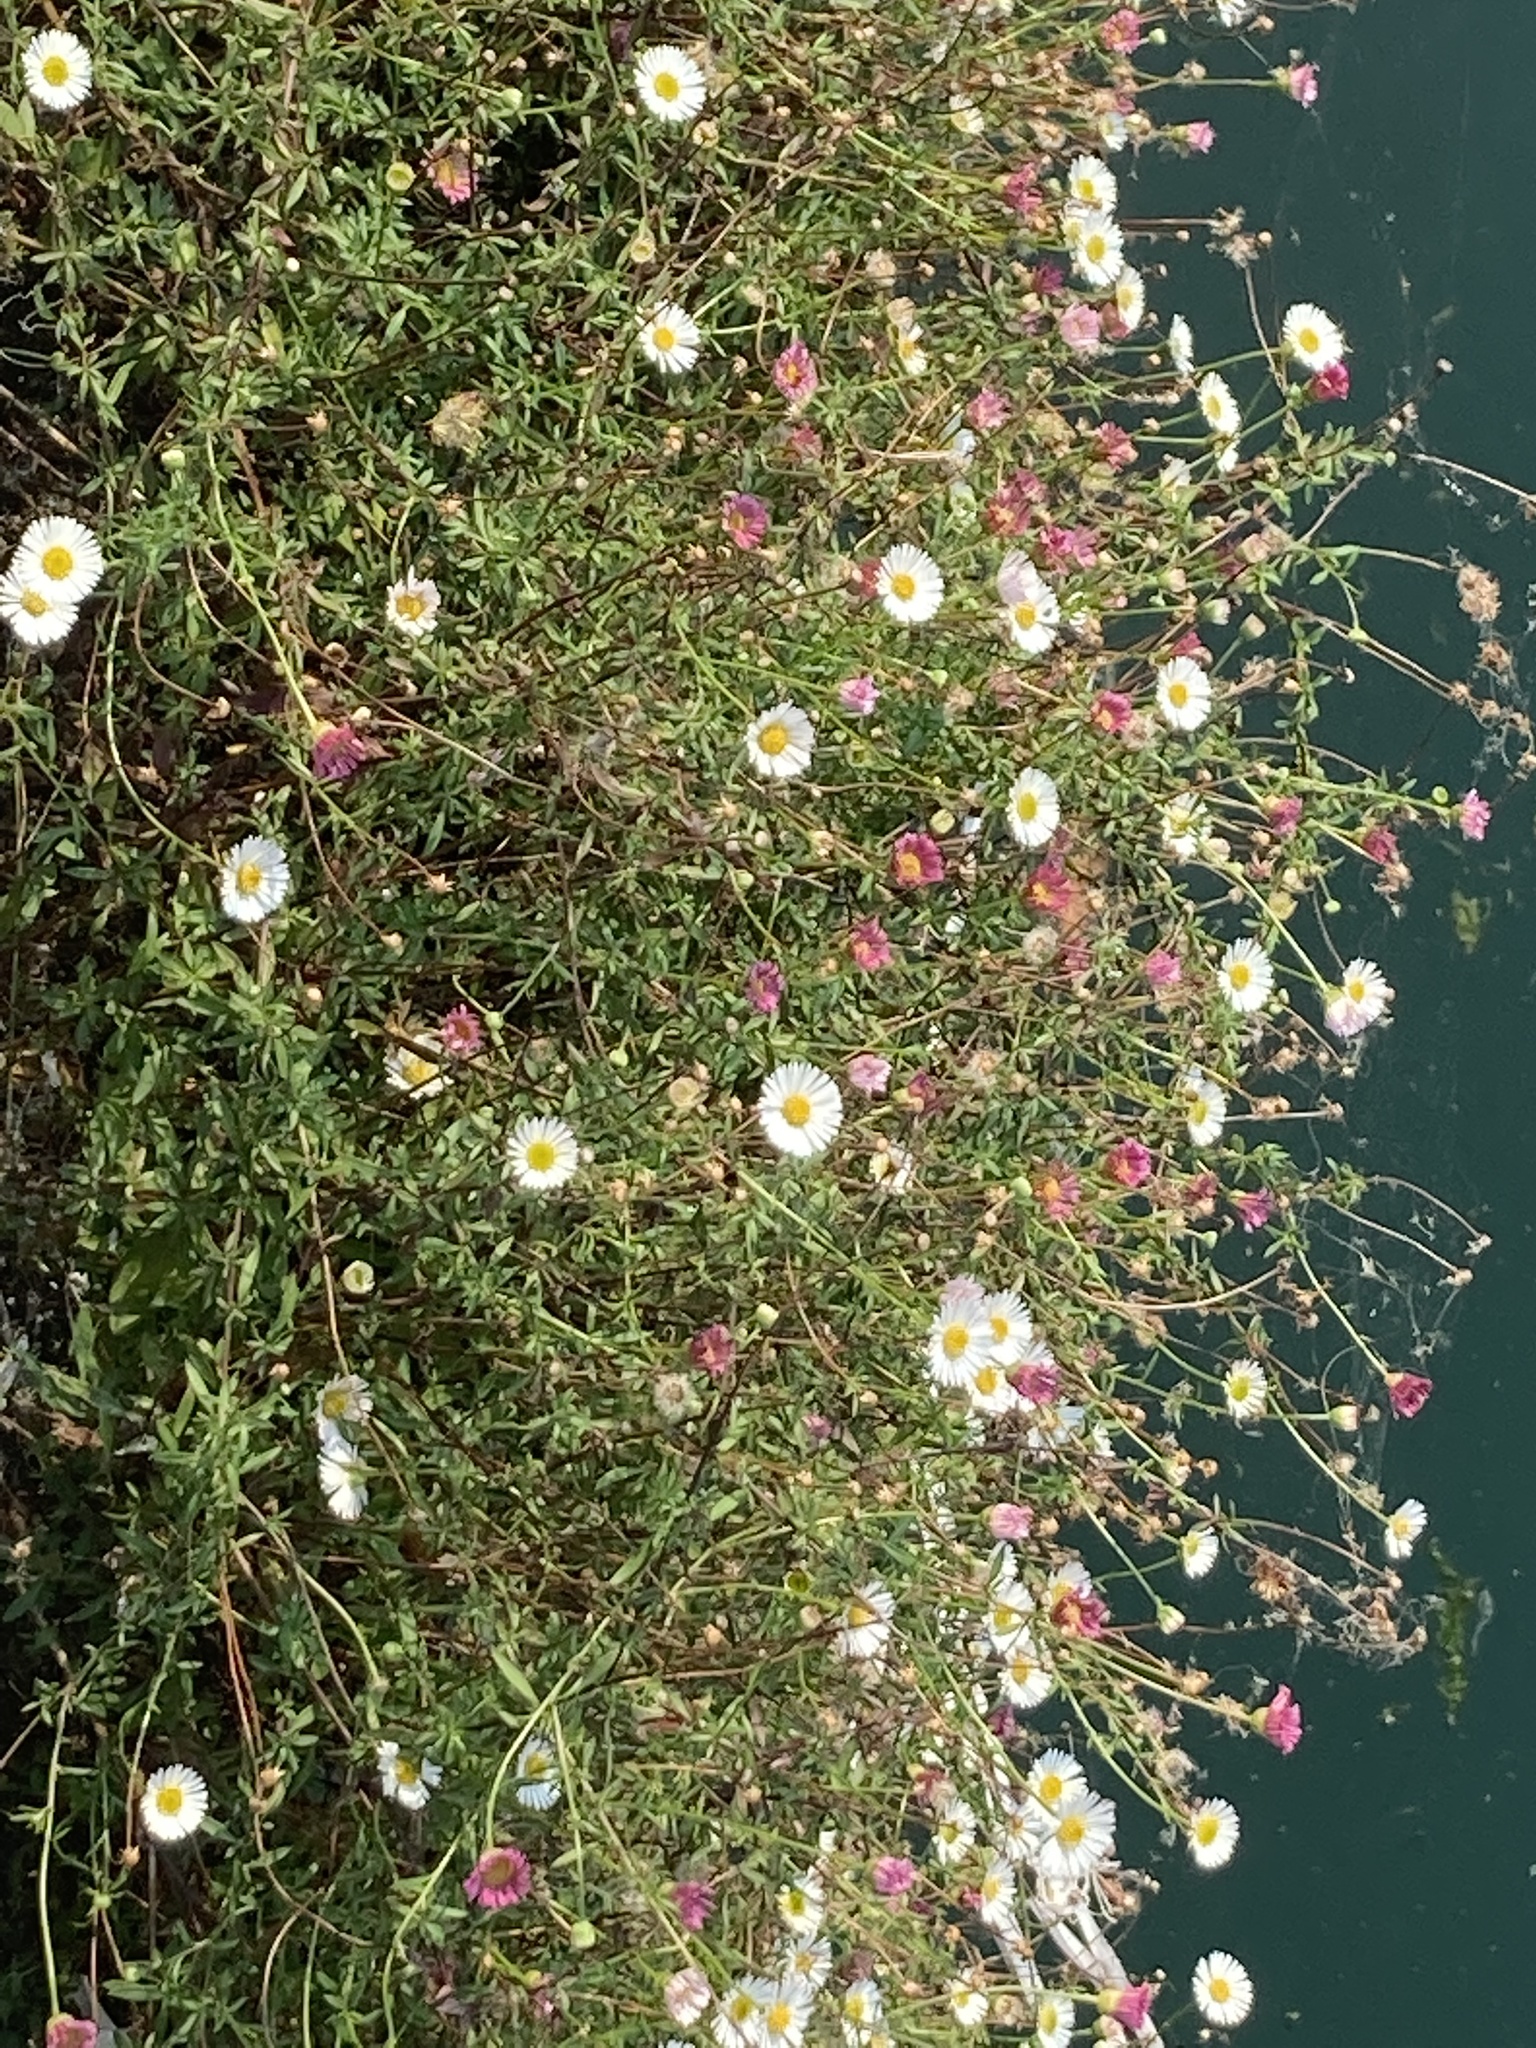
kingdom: Plantae
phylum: Tracheophyta
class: Magnoliopsida
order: Asterales
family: Asteraceae
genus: Erigeron
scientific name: Erigeron karvinskianus
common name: Mexican fleabane
